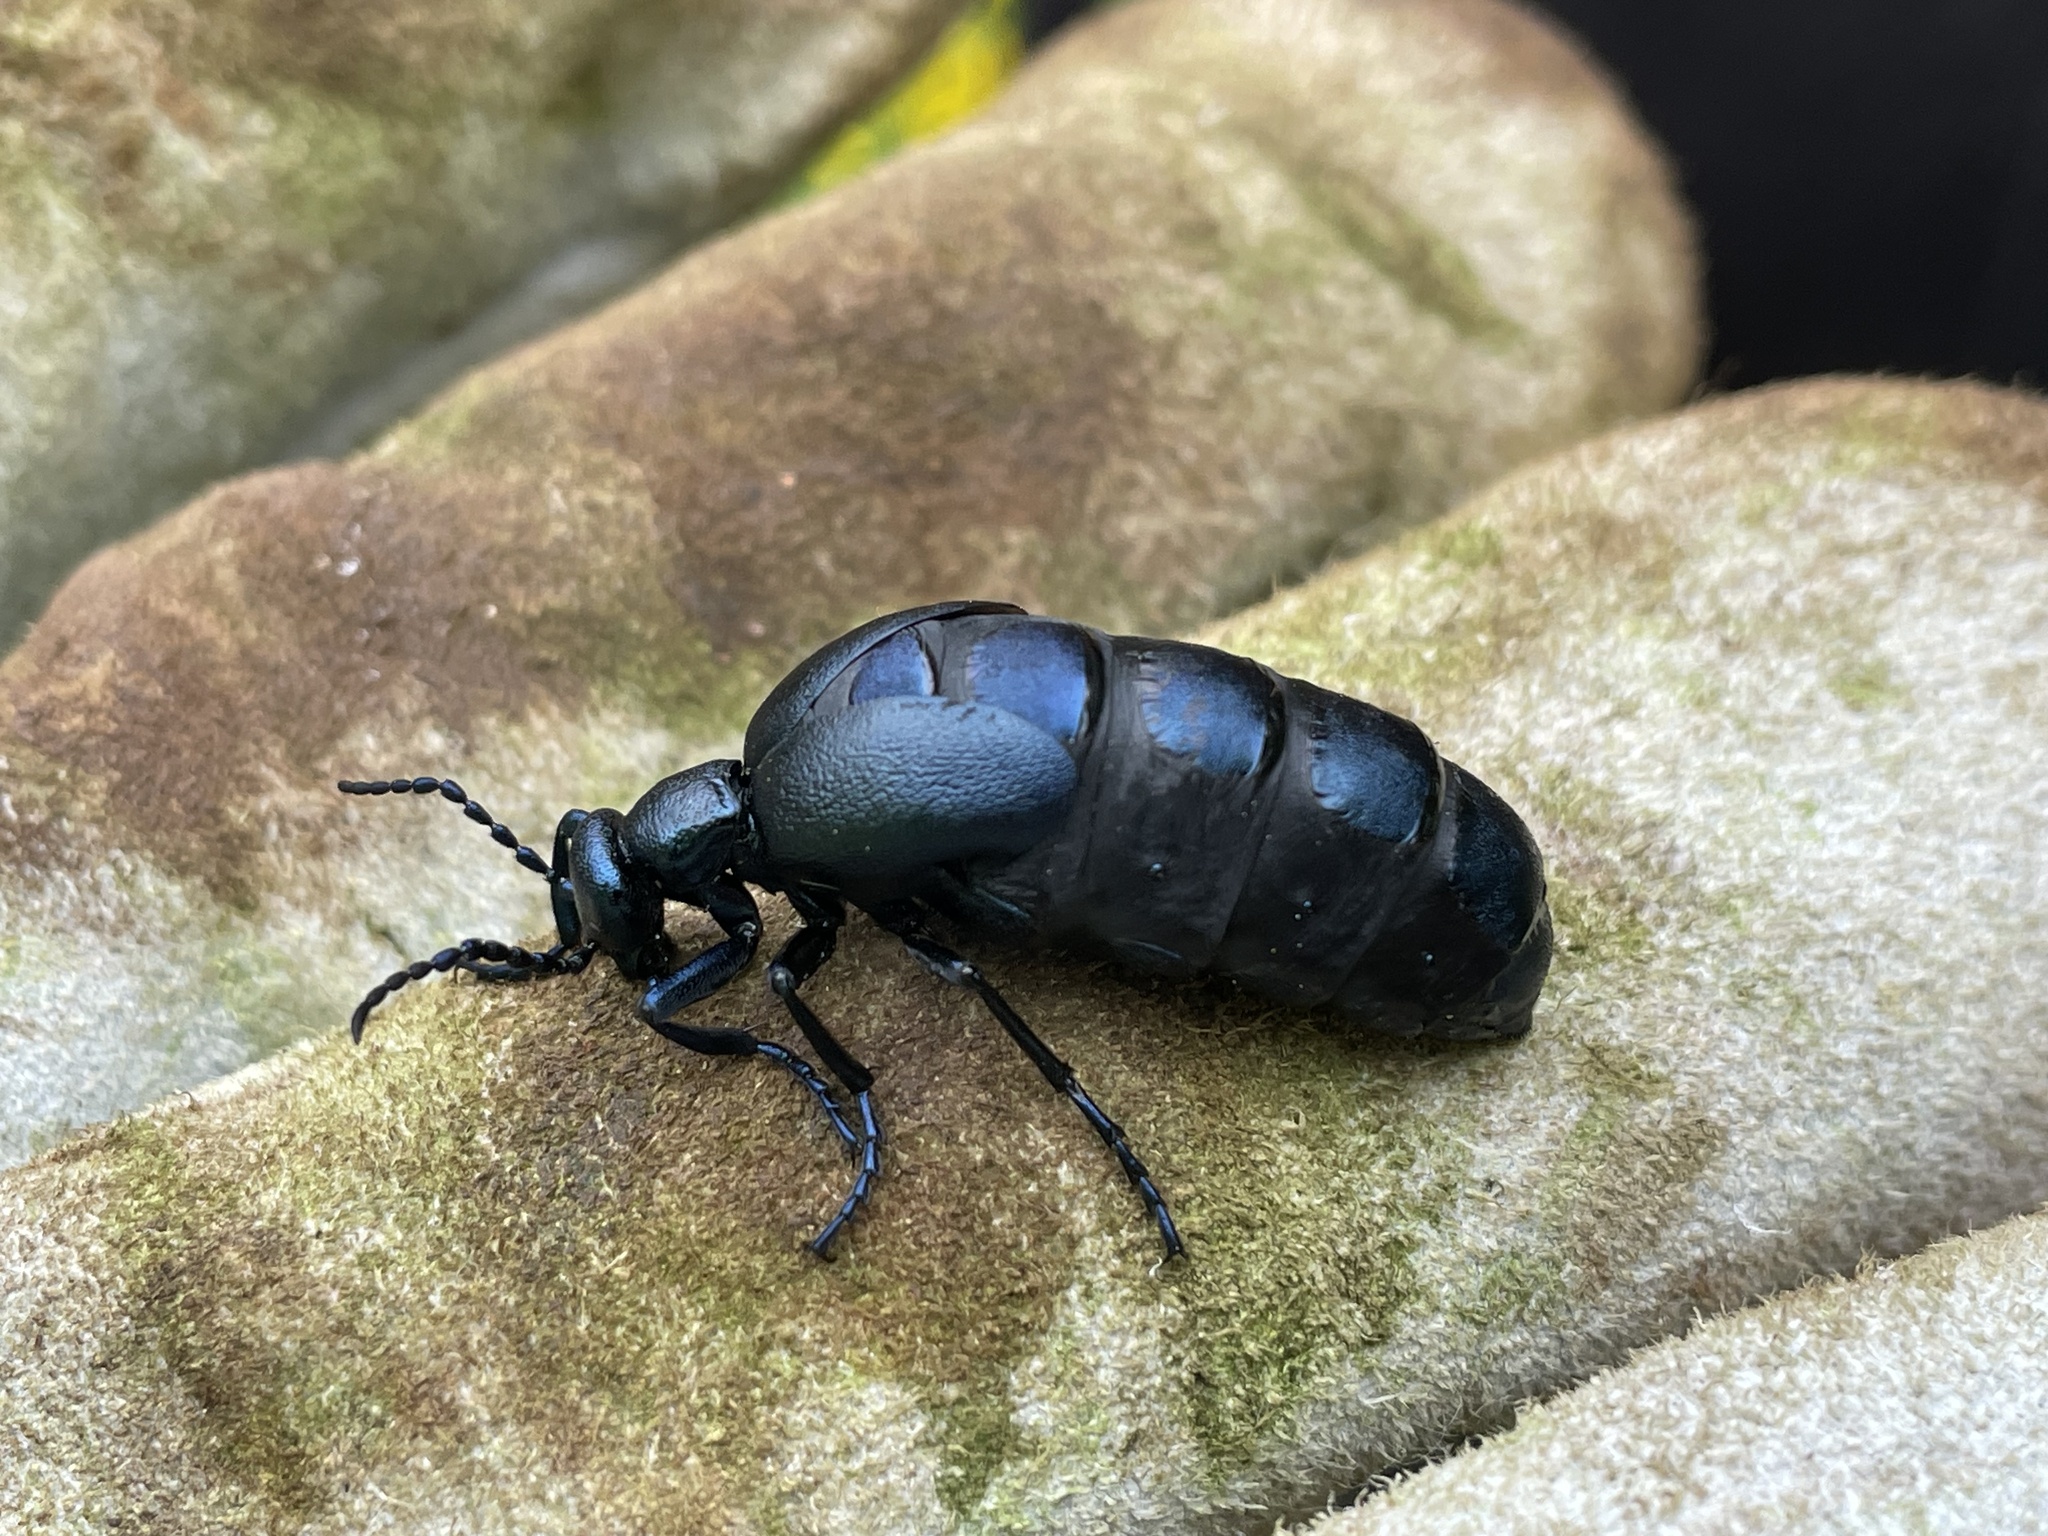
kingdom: Animalia
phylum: Arthropoda
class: Insecta
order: Coleoptera
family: Meloidae
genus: Meloe
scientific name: Meloe violaceus
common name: Violet oil-beetle
